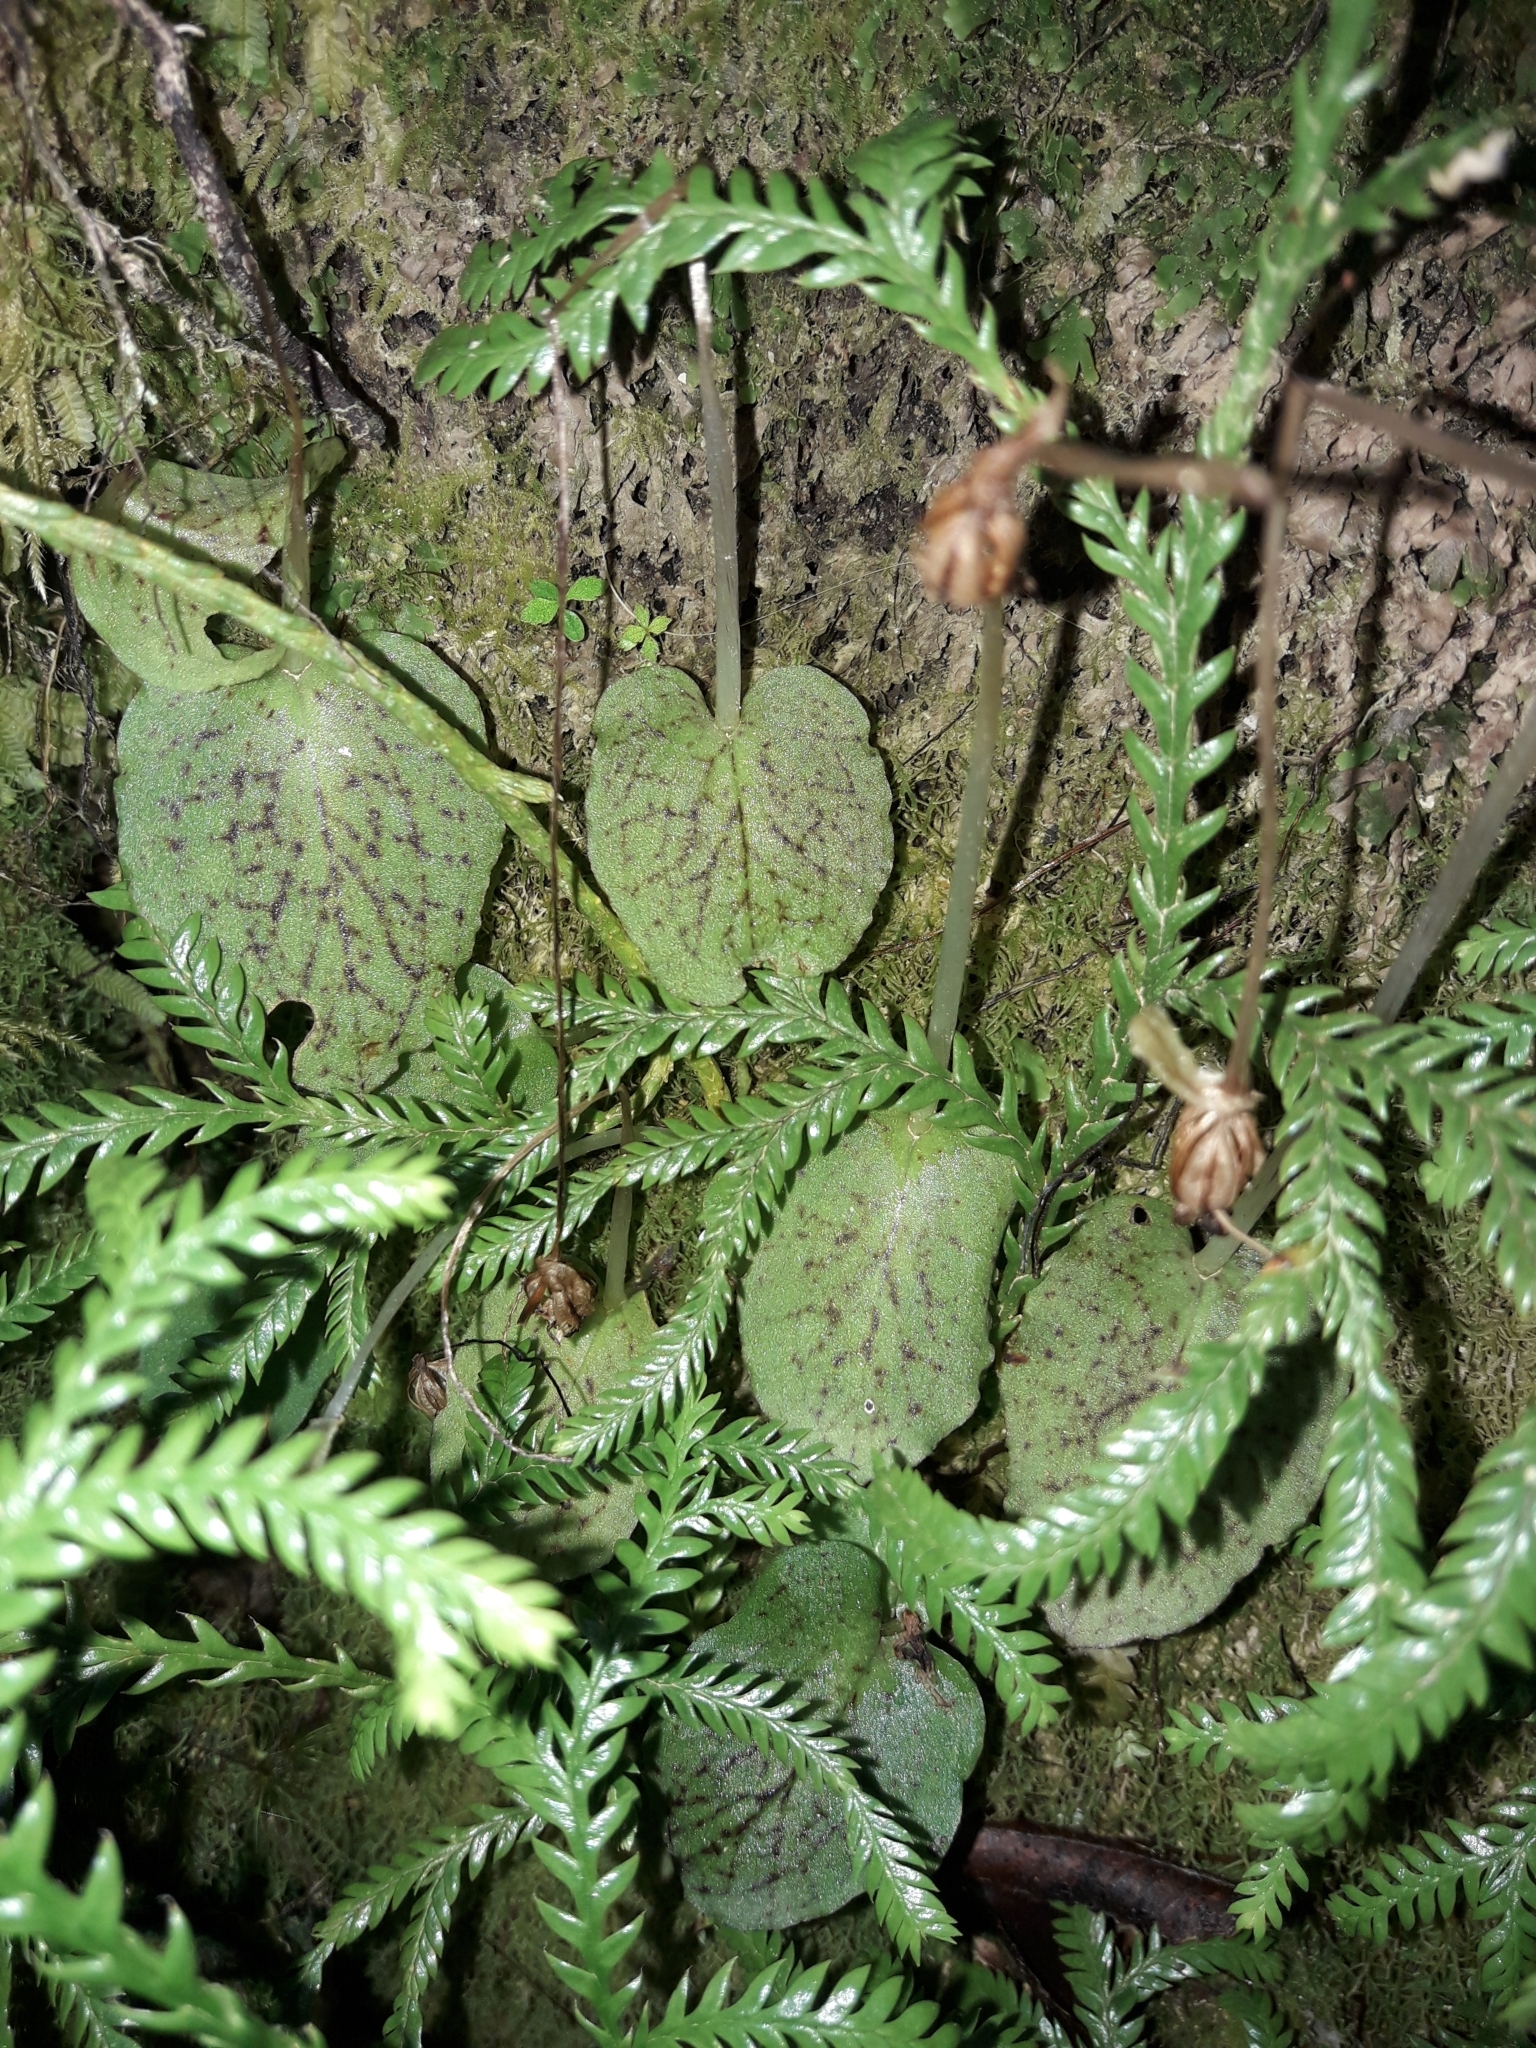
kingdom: Plantae
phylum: Tracheophyta
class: Liliopsida
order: Asparagales
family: Orchidaceae
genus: Corybas
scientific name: Corybas oblongus
